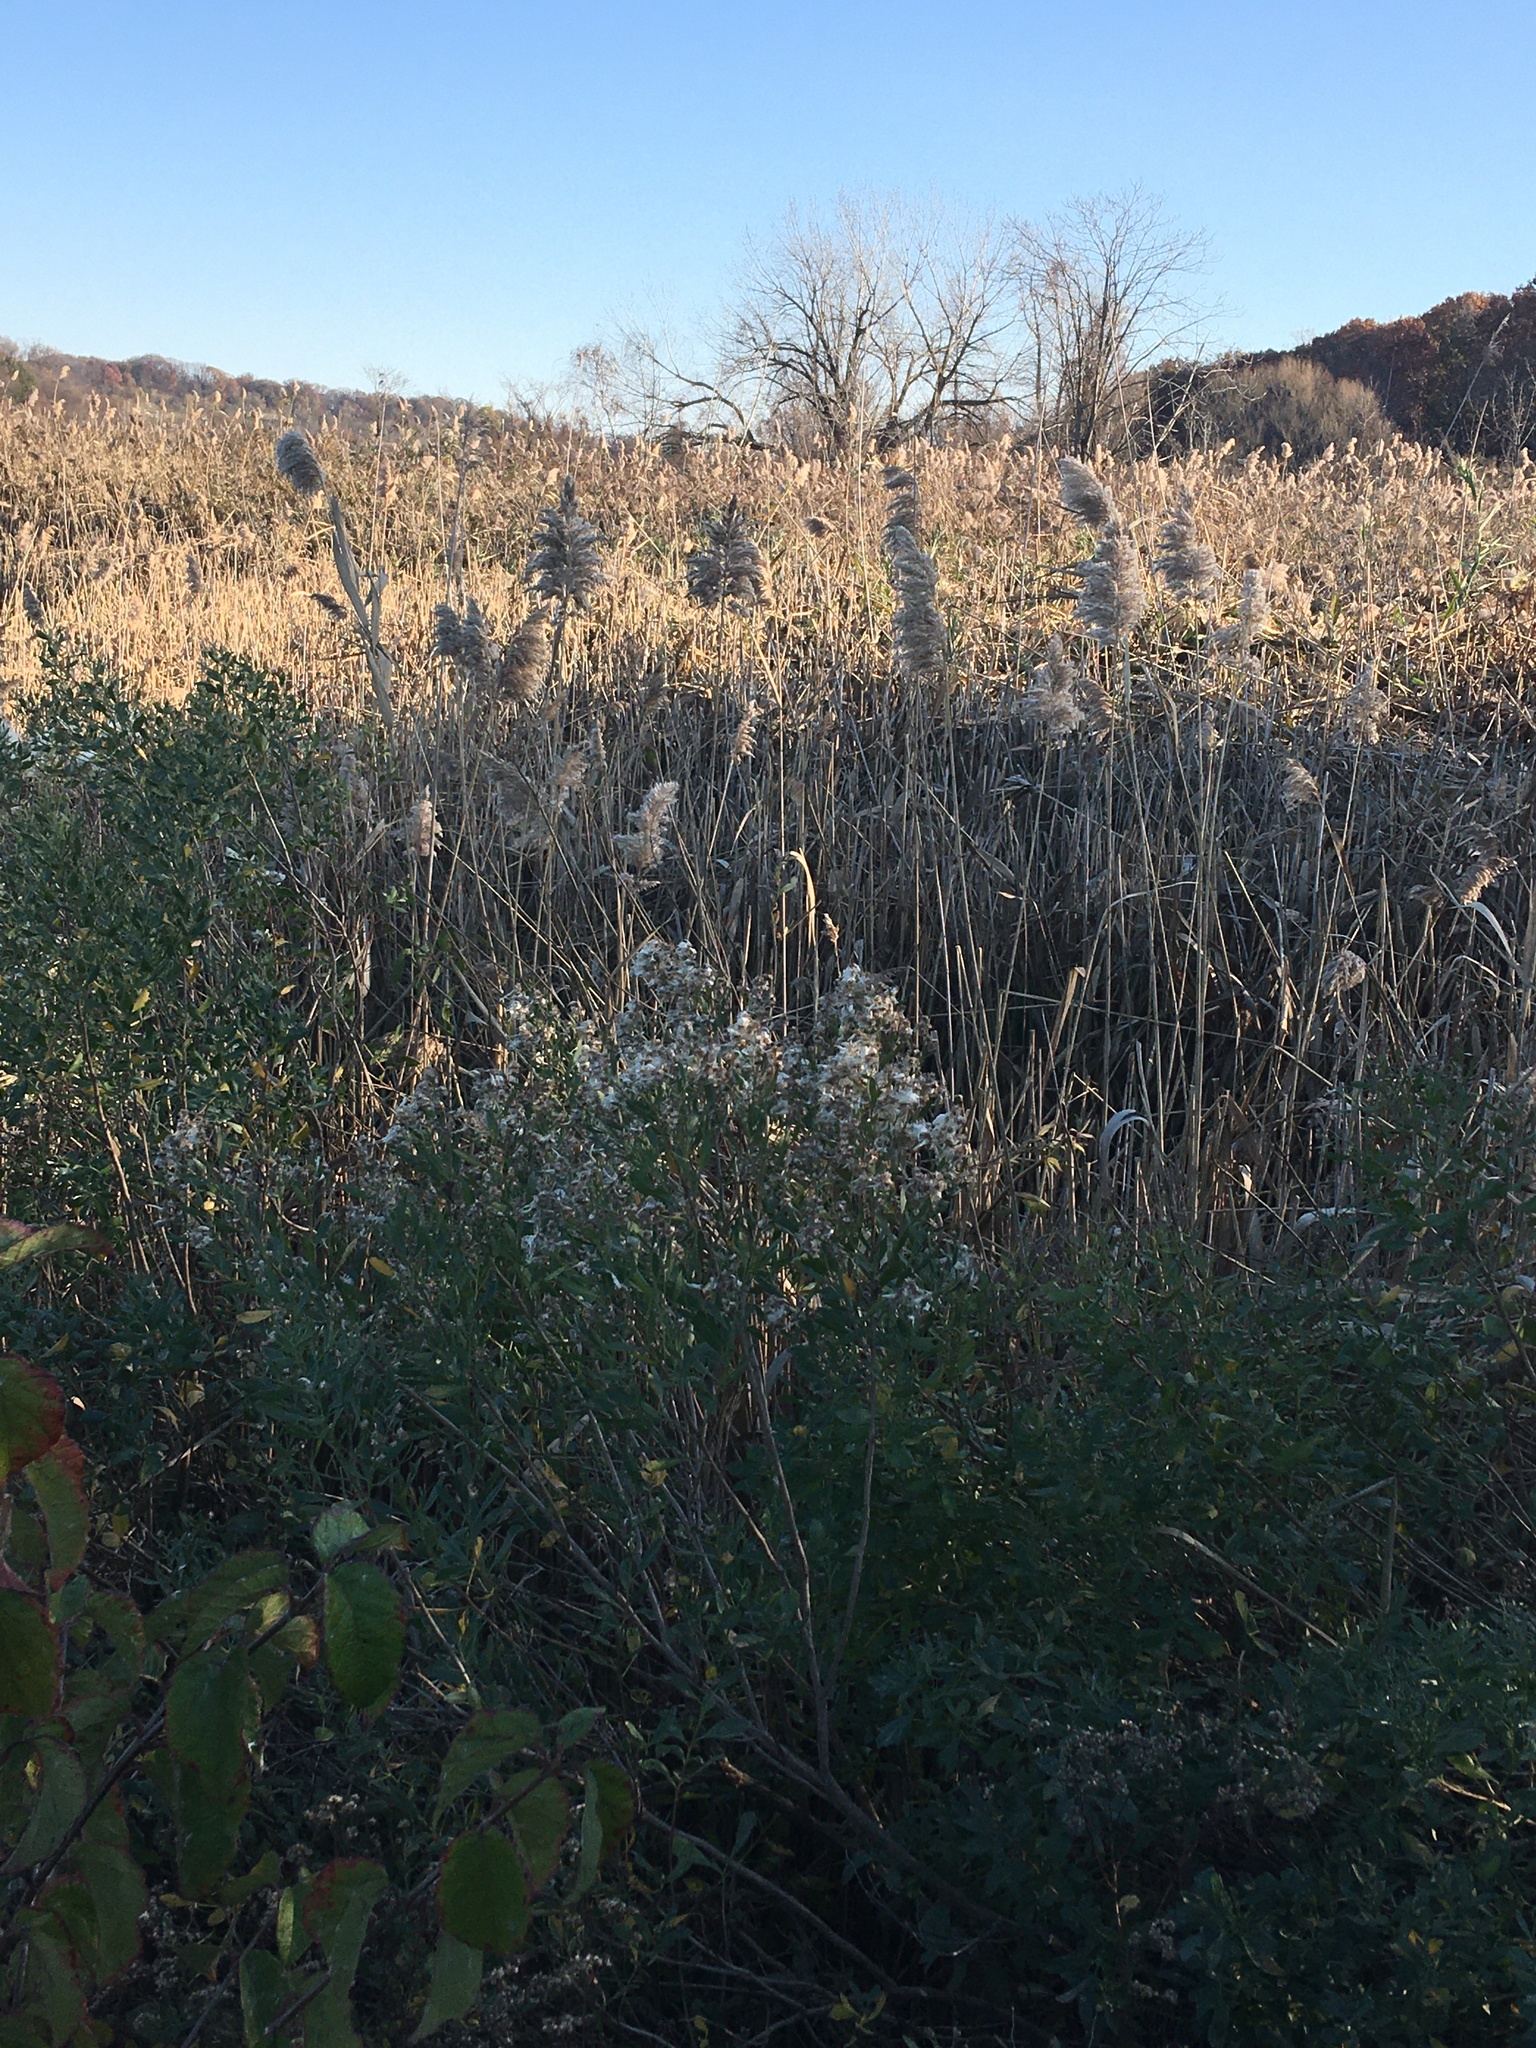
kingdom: Plantae
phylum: Tracheophyta
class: Magnoliopsida
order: Asterales
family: Asteraceae
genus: Baccharis
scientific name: Baccharis halimifolia
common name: Eastern baccharis
